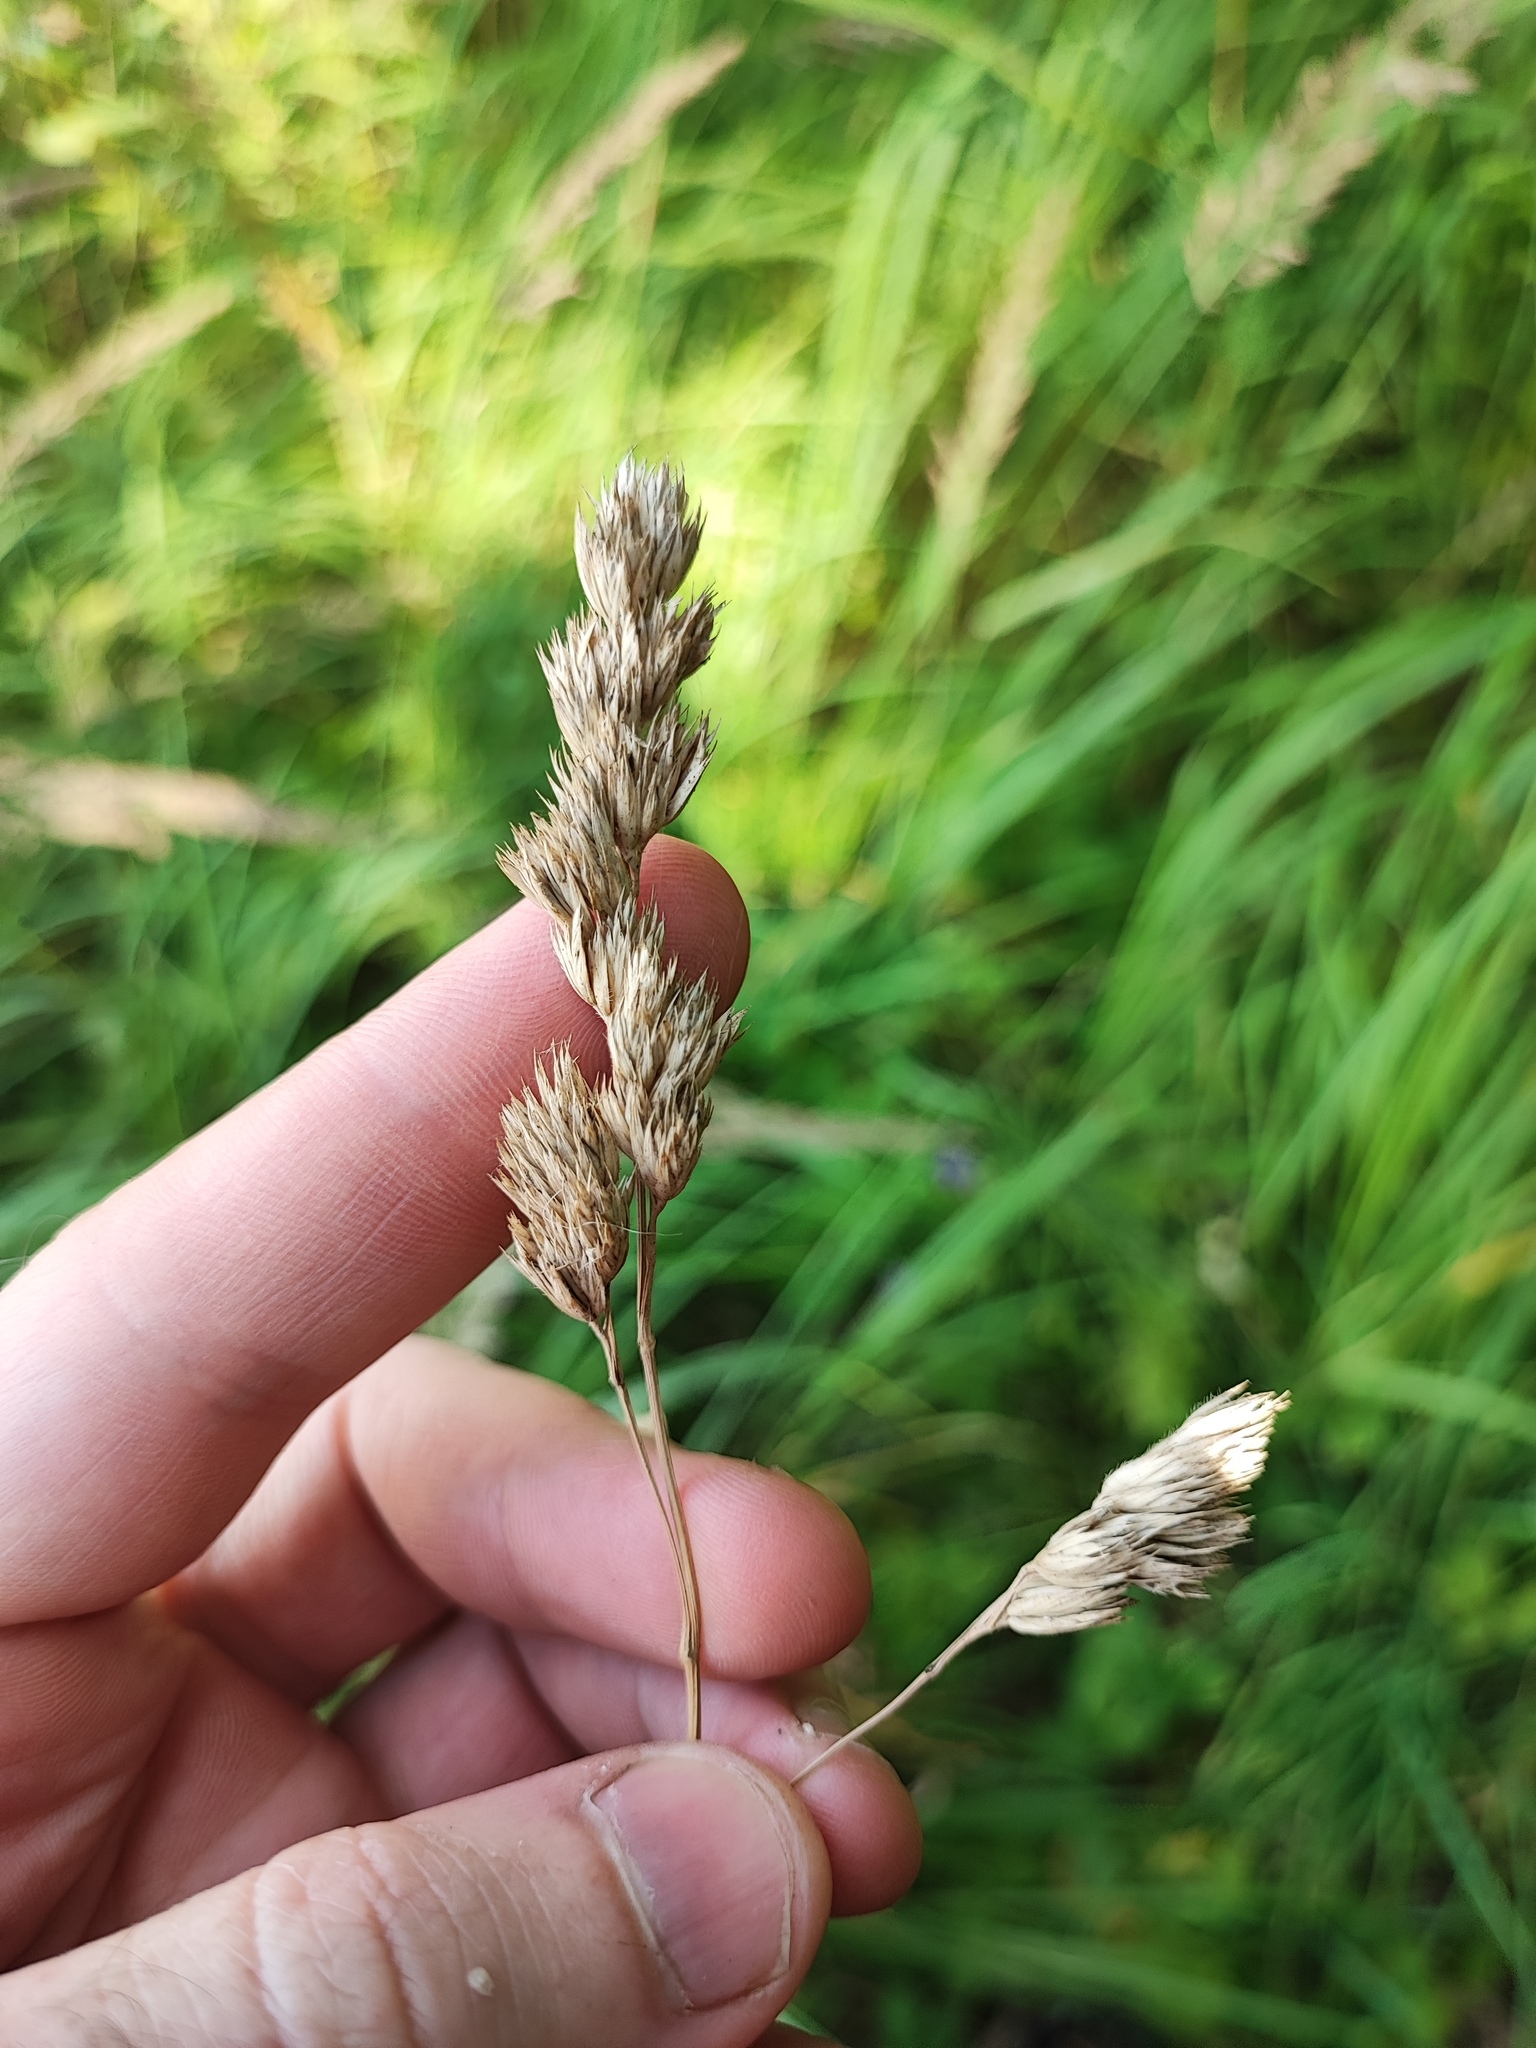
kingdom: Plantae
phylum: Tracheophyta
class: Liliopsida
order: Poales
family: Poaceae
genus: Dactylis
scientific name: Dactylis glomerata
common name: Orchardgrass
